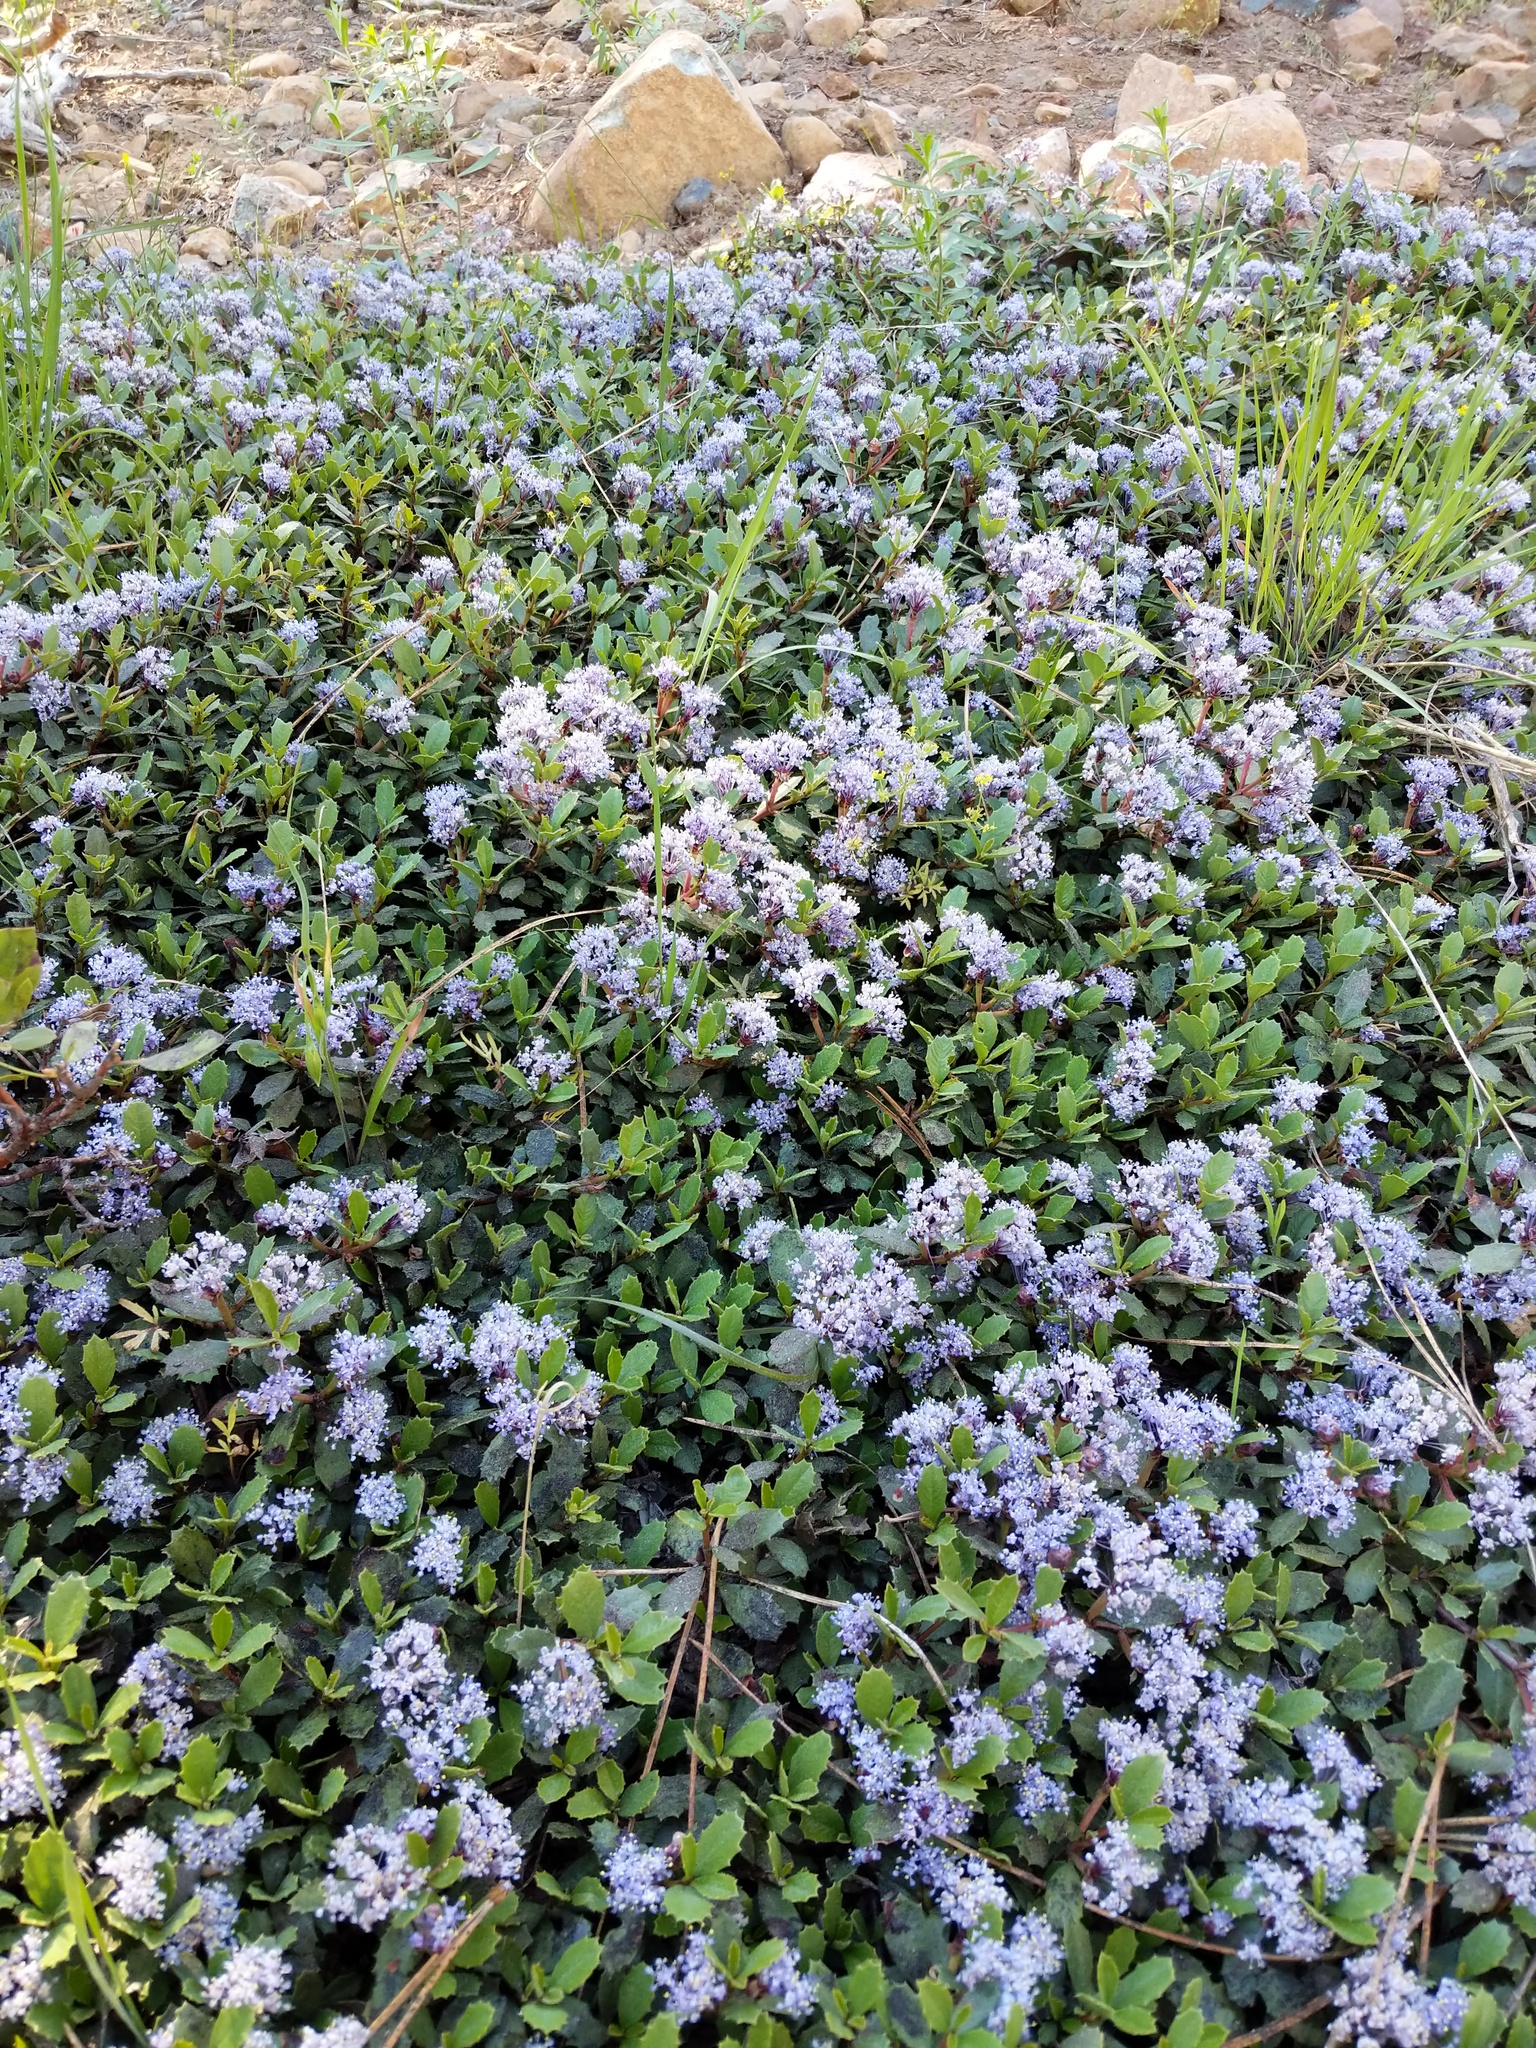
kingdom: Plantae
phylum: Tracheophyta
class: Magnoliopsida
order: Rosales
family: Rhamnaceae
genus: Ceanothus
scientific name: Ceanothus prostratus
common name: Mahala-mat
